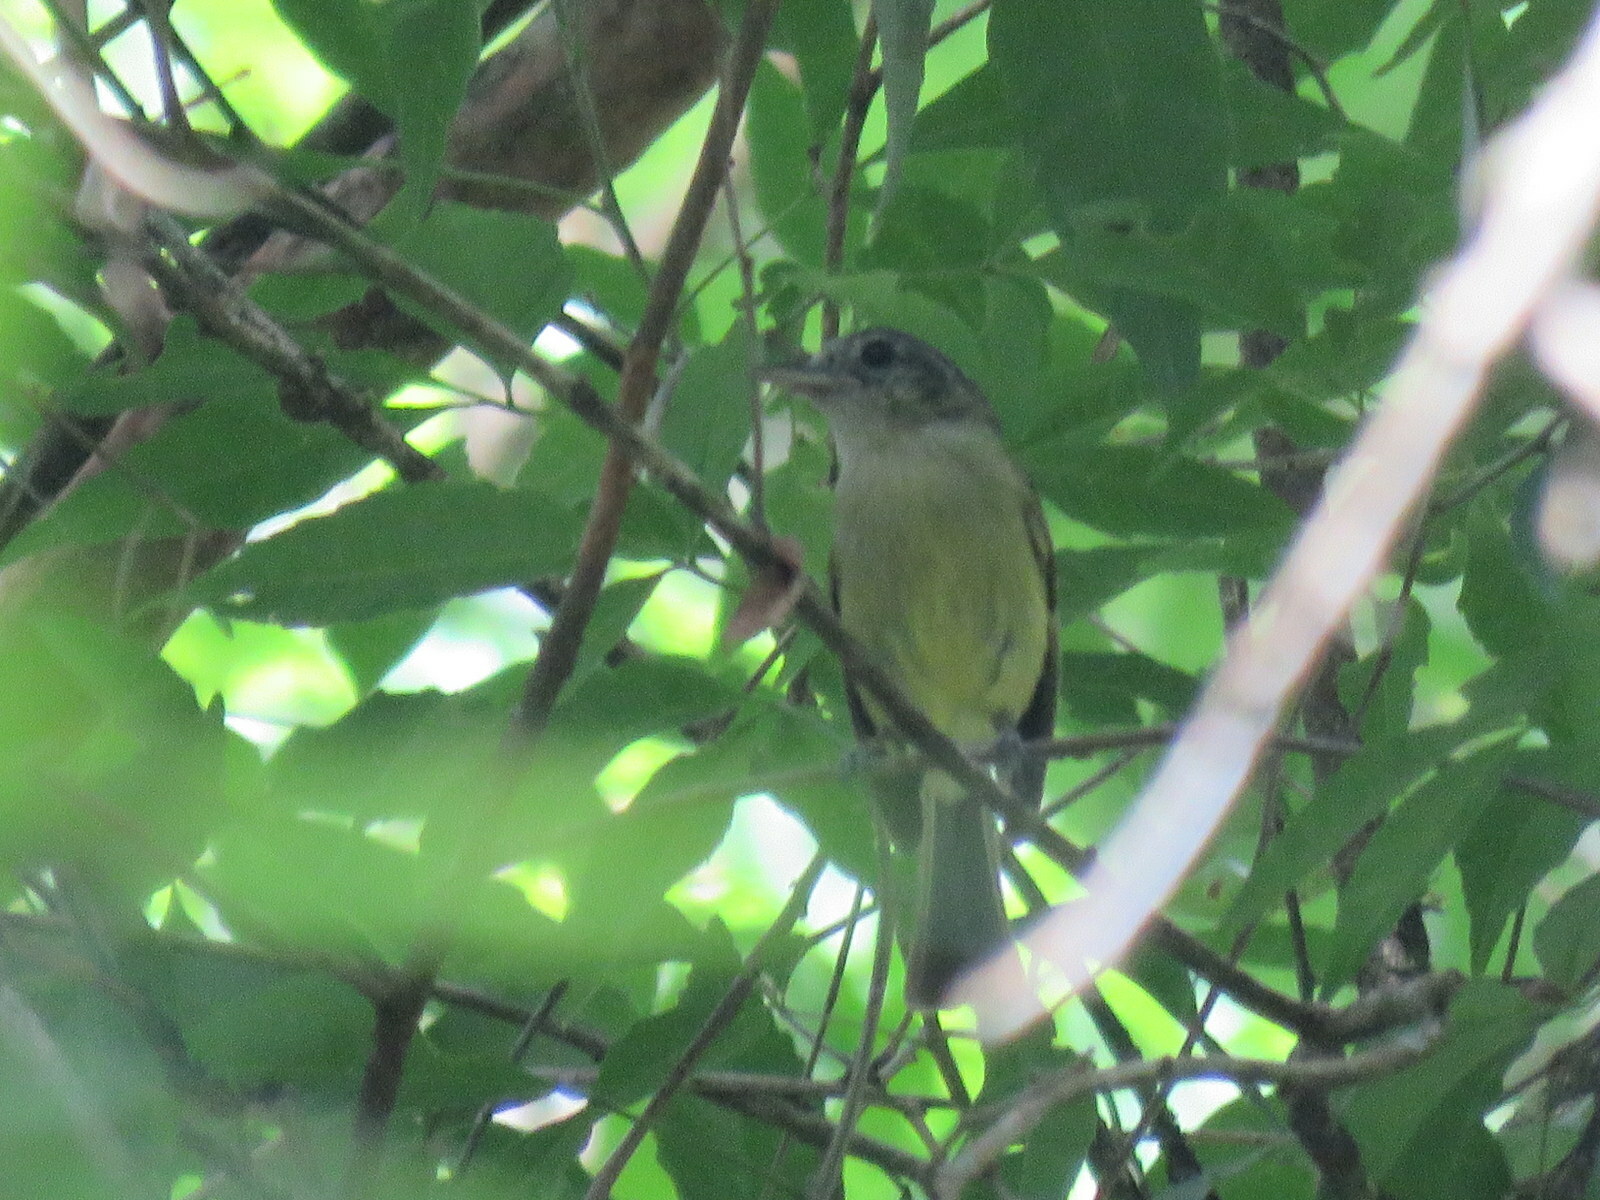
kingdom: Animalia
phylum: Chordata
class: Aves
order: Passeriformes
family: Thamnophilidae
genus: Dysithamnus
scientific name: Dysithamnus mentalis
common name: Plain antvireo
